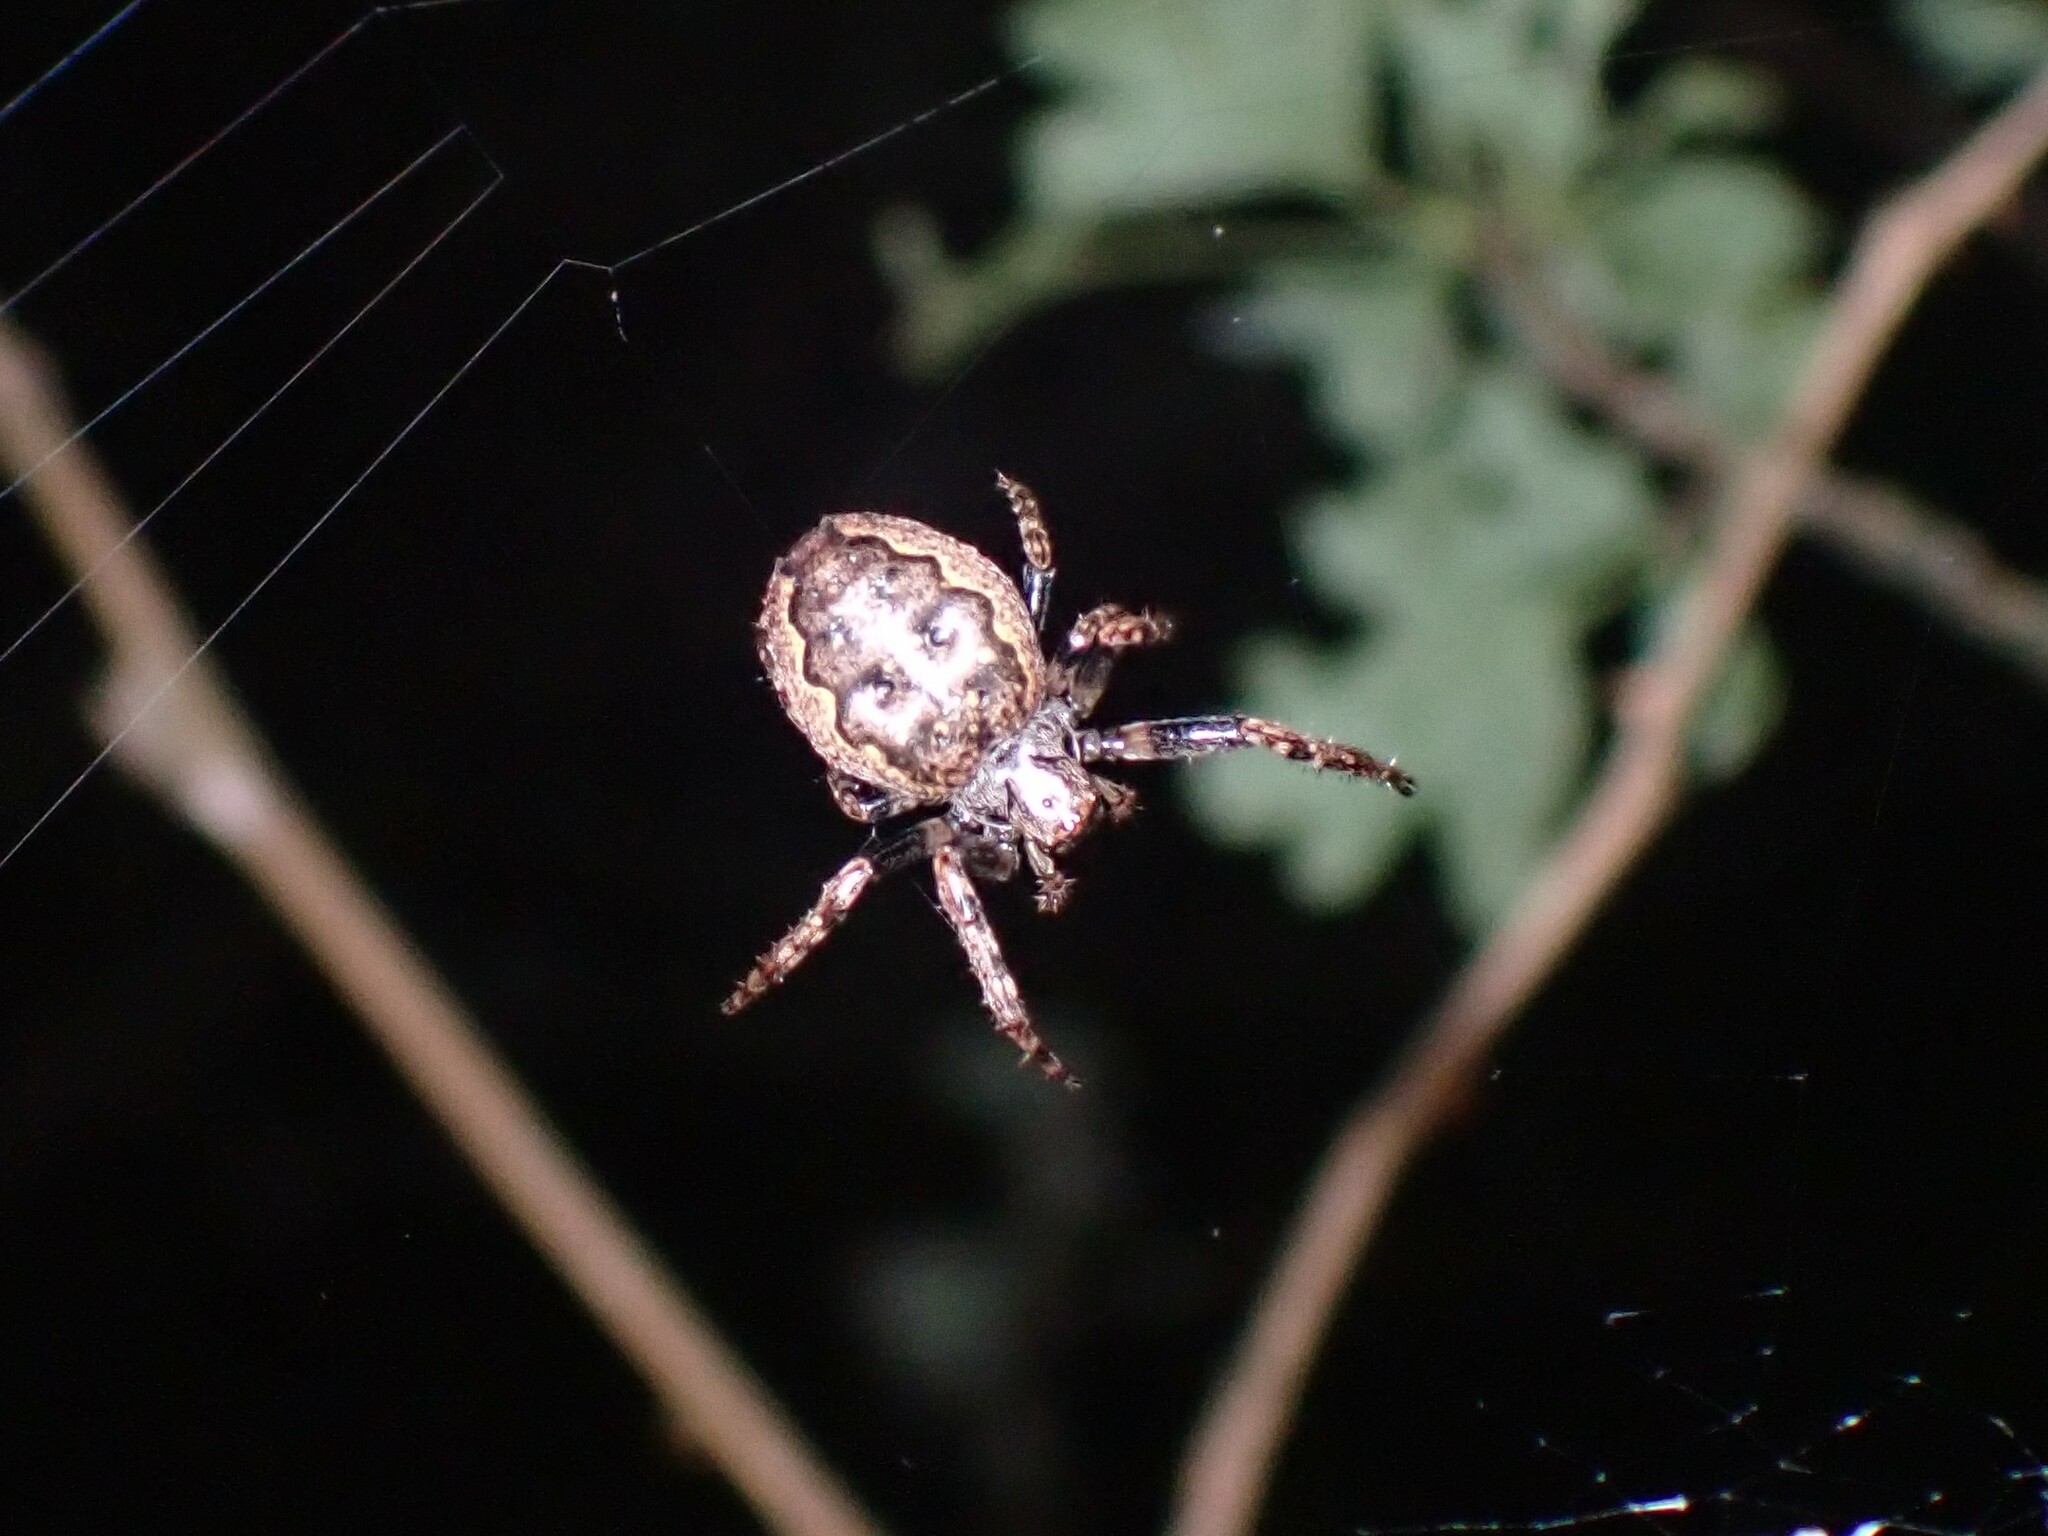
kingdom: Animalia
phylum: Arthropoda
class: Arachnida
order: Araneae
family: Araneidae
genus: Nuctenea
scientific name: Nuctenea umbratica
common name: Toad spider
